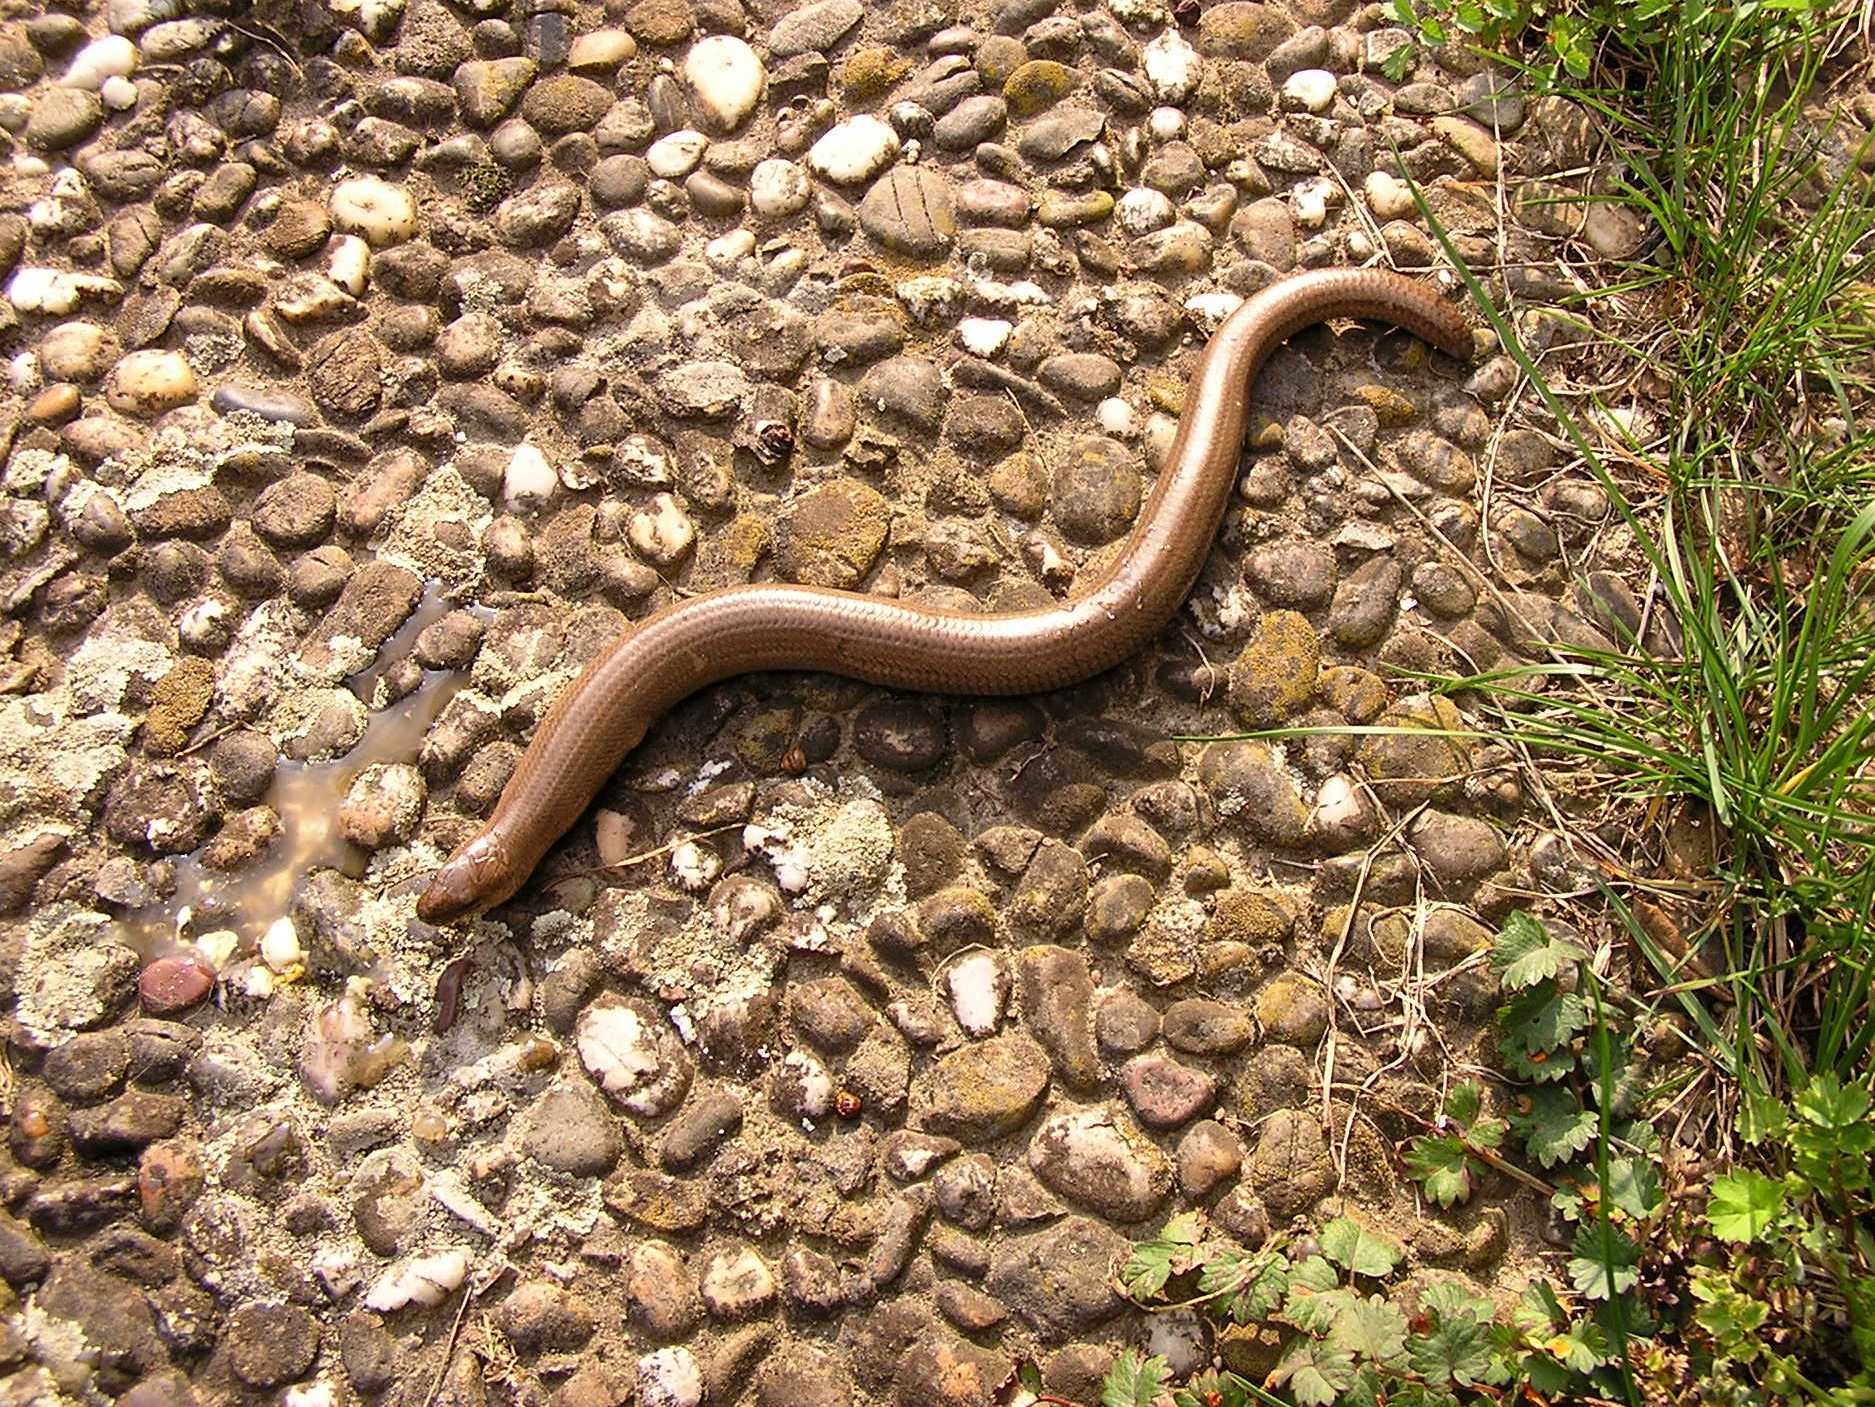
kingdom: Animalia
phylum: Chordata
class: Squamata
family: Anguidae
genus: Anguis
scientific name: Anguis fragilis
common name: Slow worm
